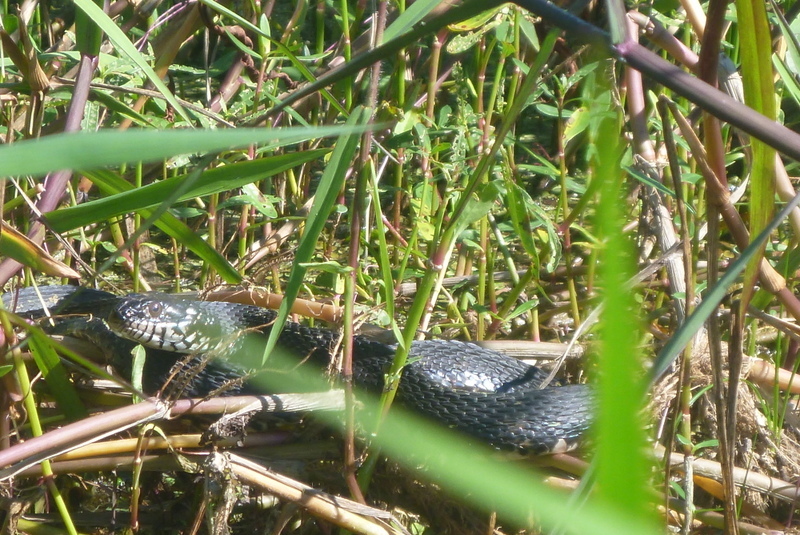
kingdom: Animalia
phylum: Chordata
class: Squamata
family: Colubridae
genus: Nerodia
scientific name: Nerodia fasciata
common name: Southern water snake
